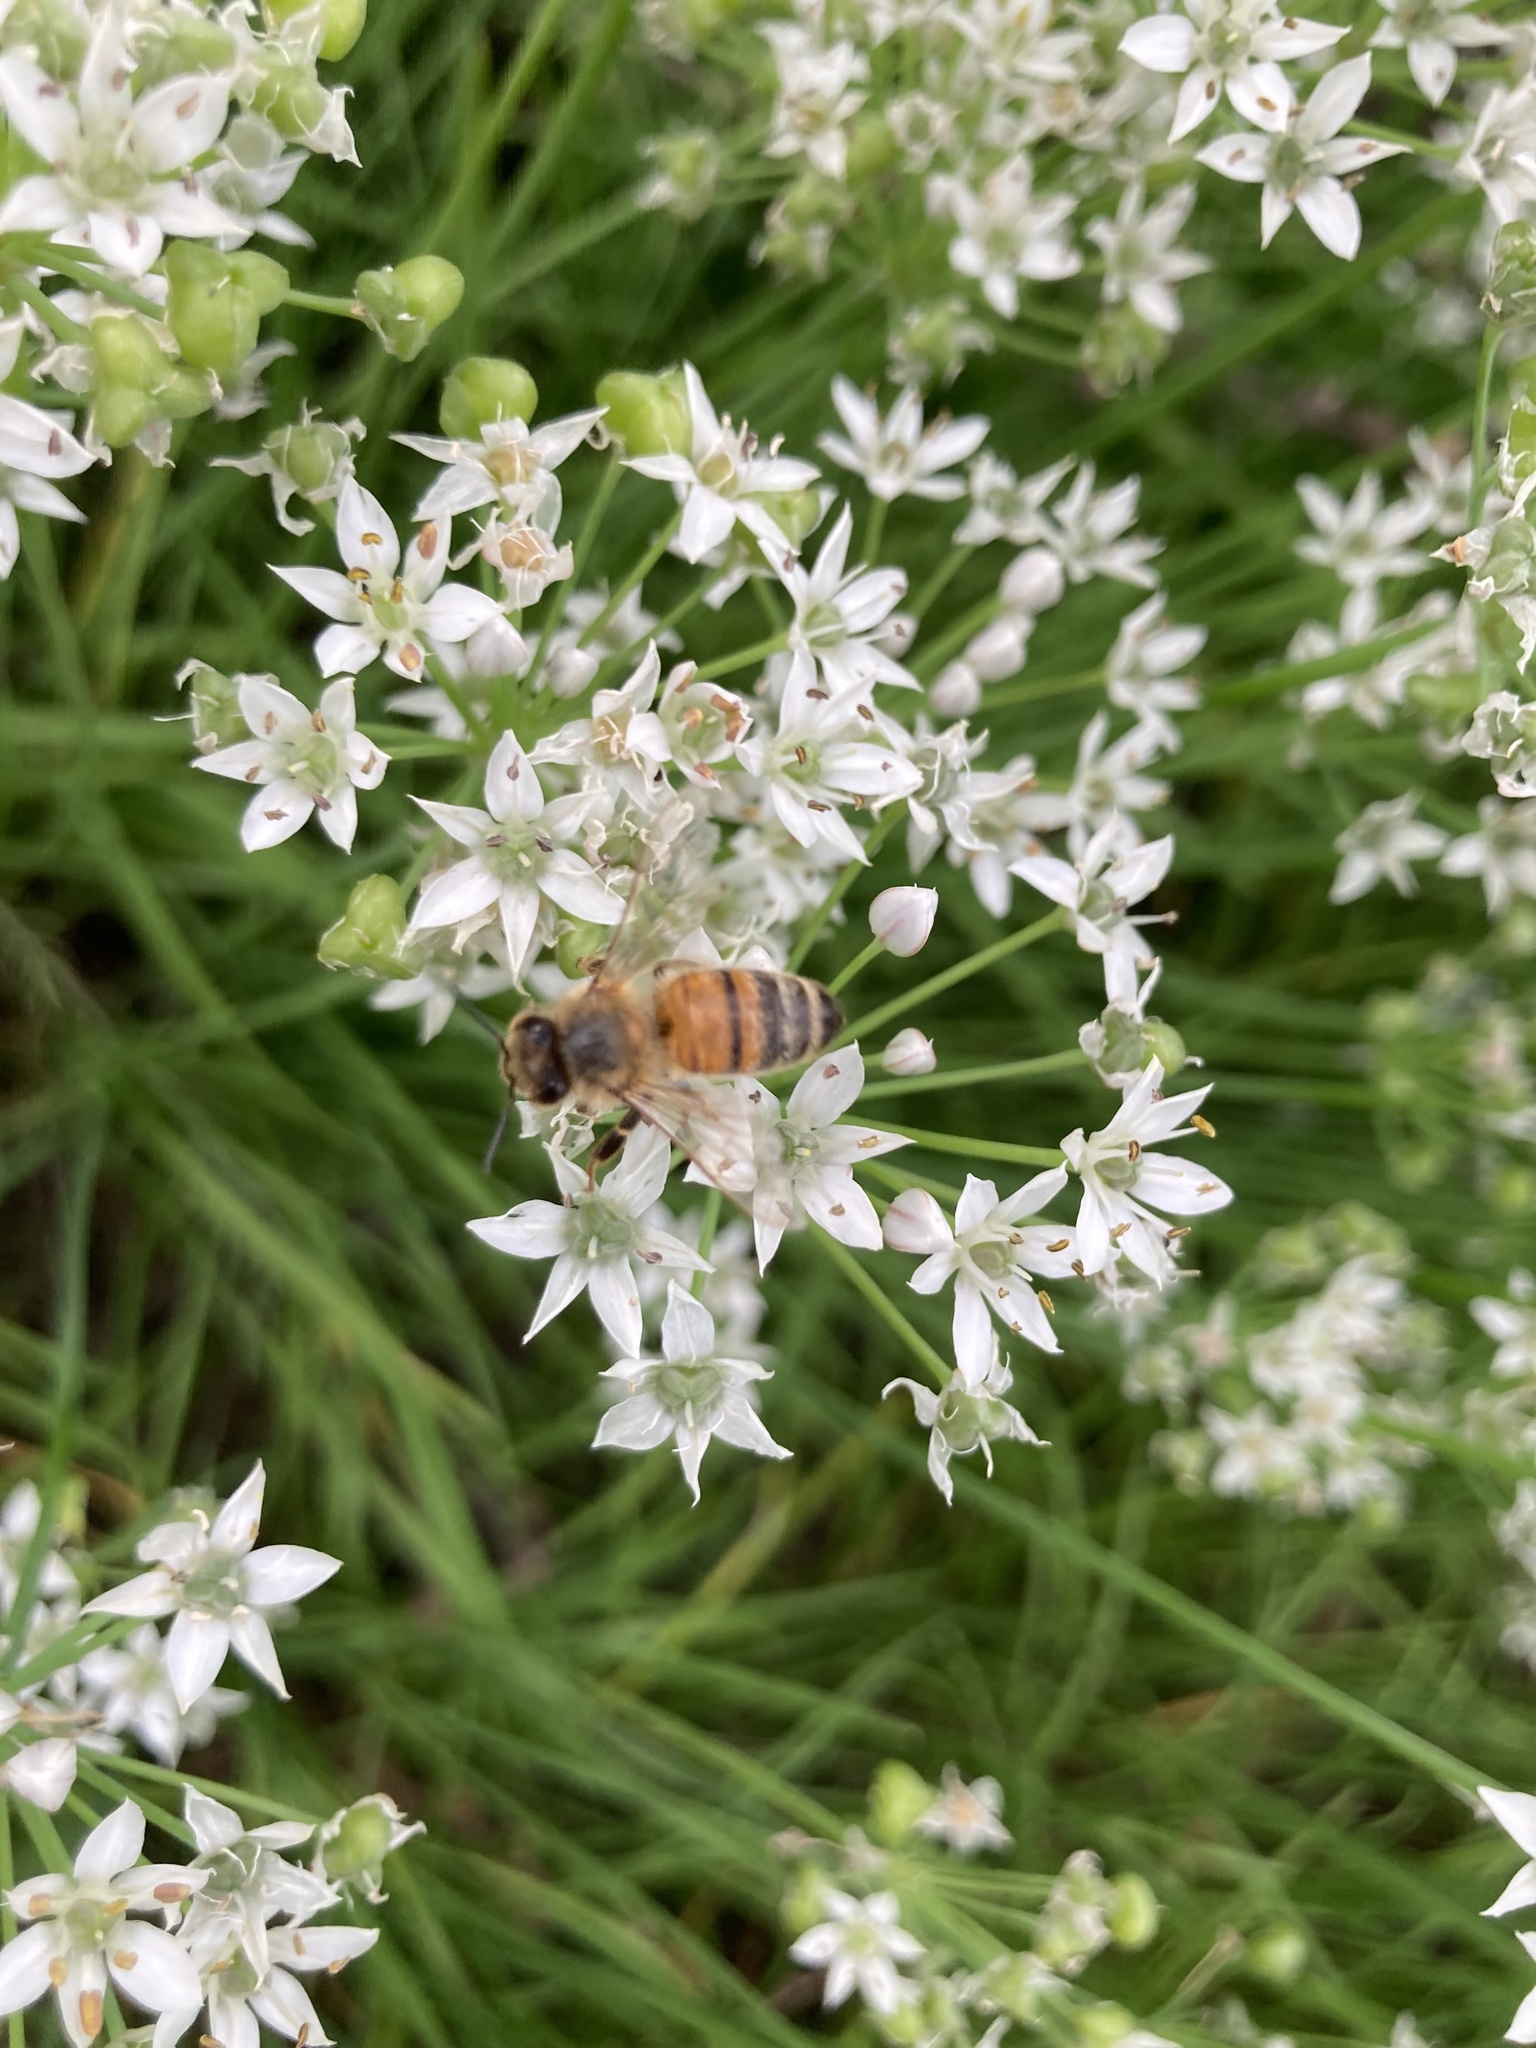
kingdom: Animalia
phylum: Arthropoda
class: Insecta
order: Hymenoptera
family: Apidae
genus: Apis
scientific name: Apis mellifera
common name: Honey bee
